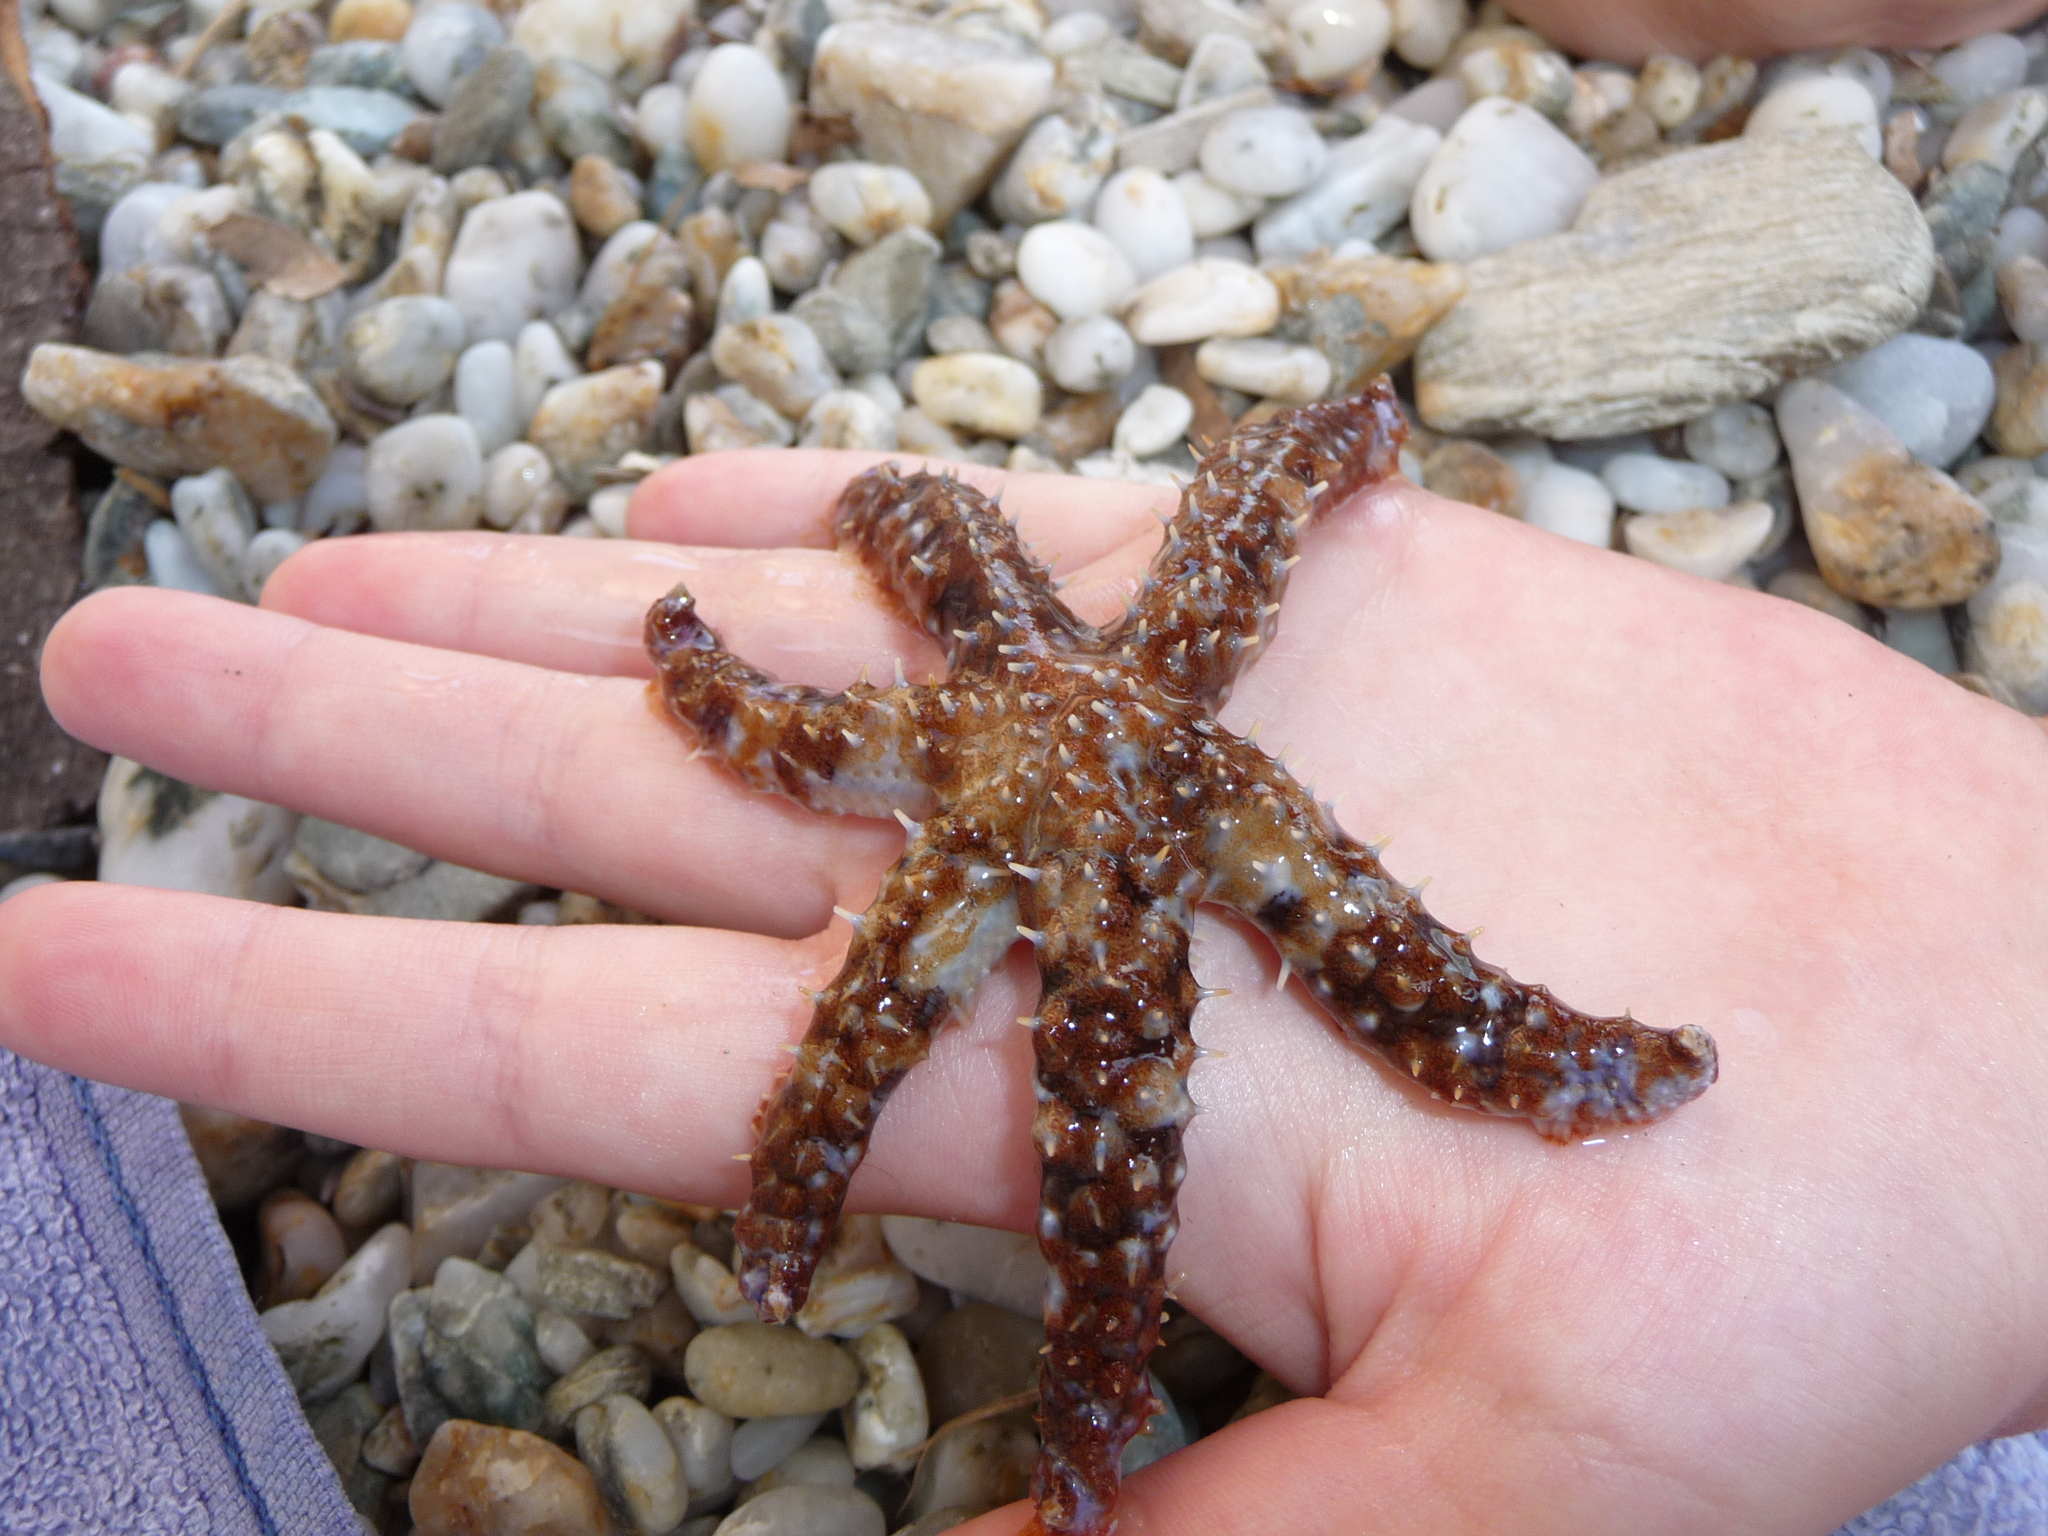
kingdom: Animalia
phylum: Echinodermata
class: Asteroidea
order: Forcipulatida
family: Asteriidae
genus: Coscinasterias
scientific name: Coscinasterias tenuispina
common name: Blue spiny starfish
